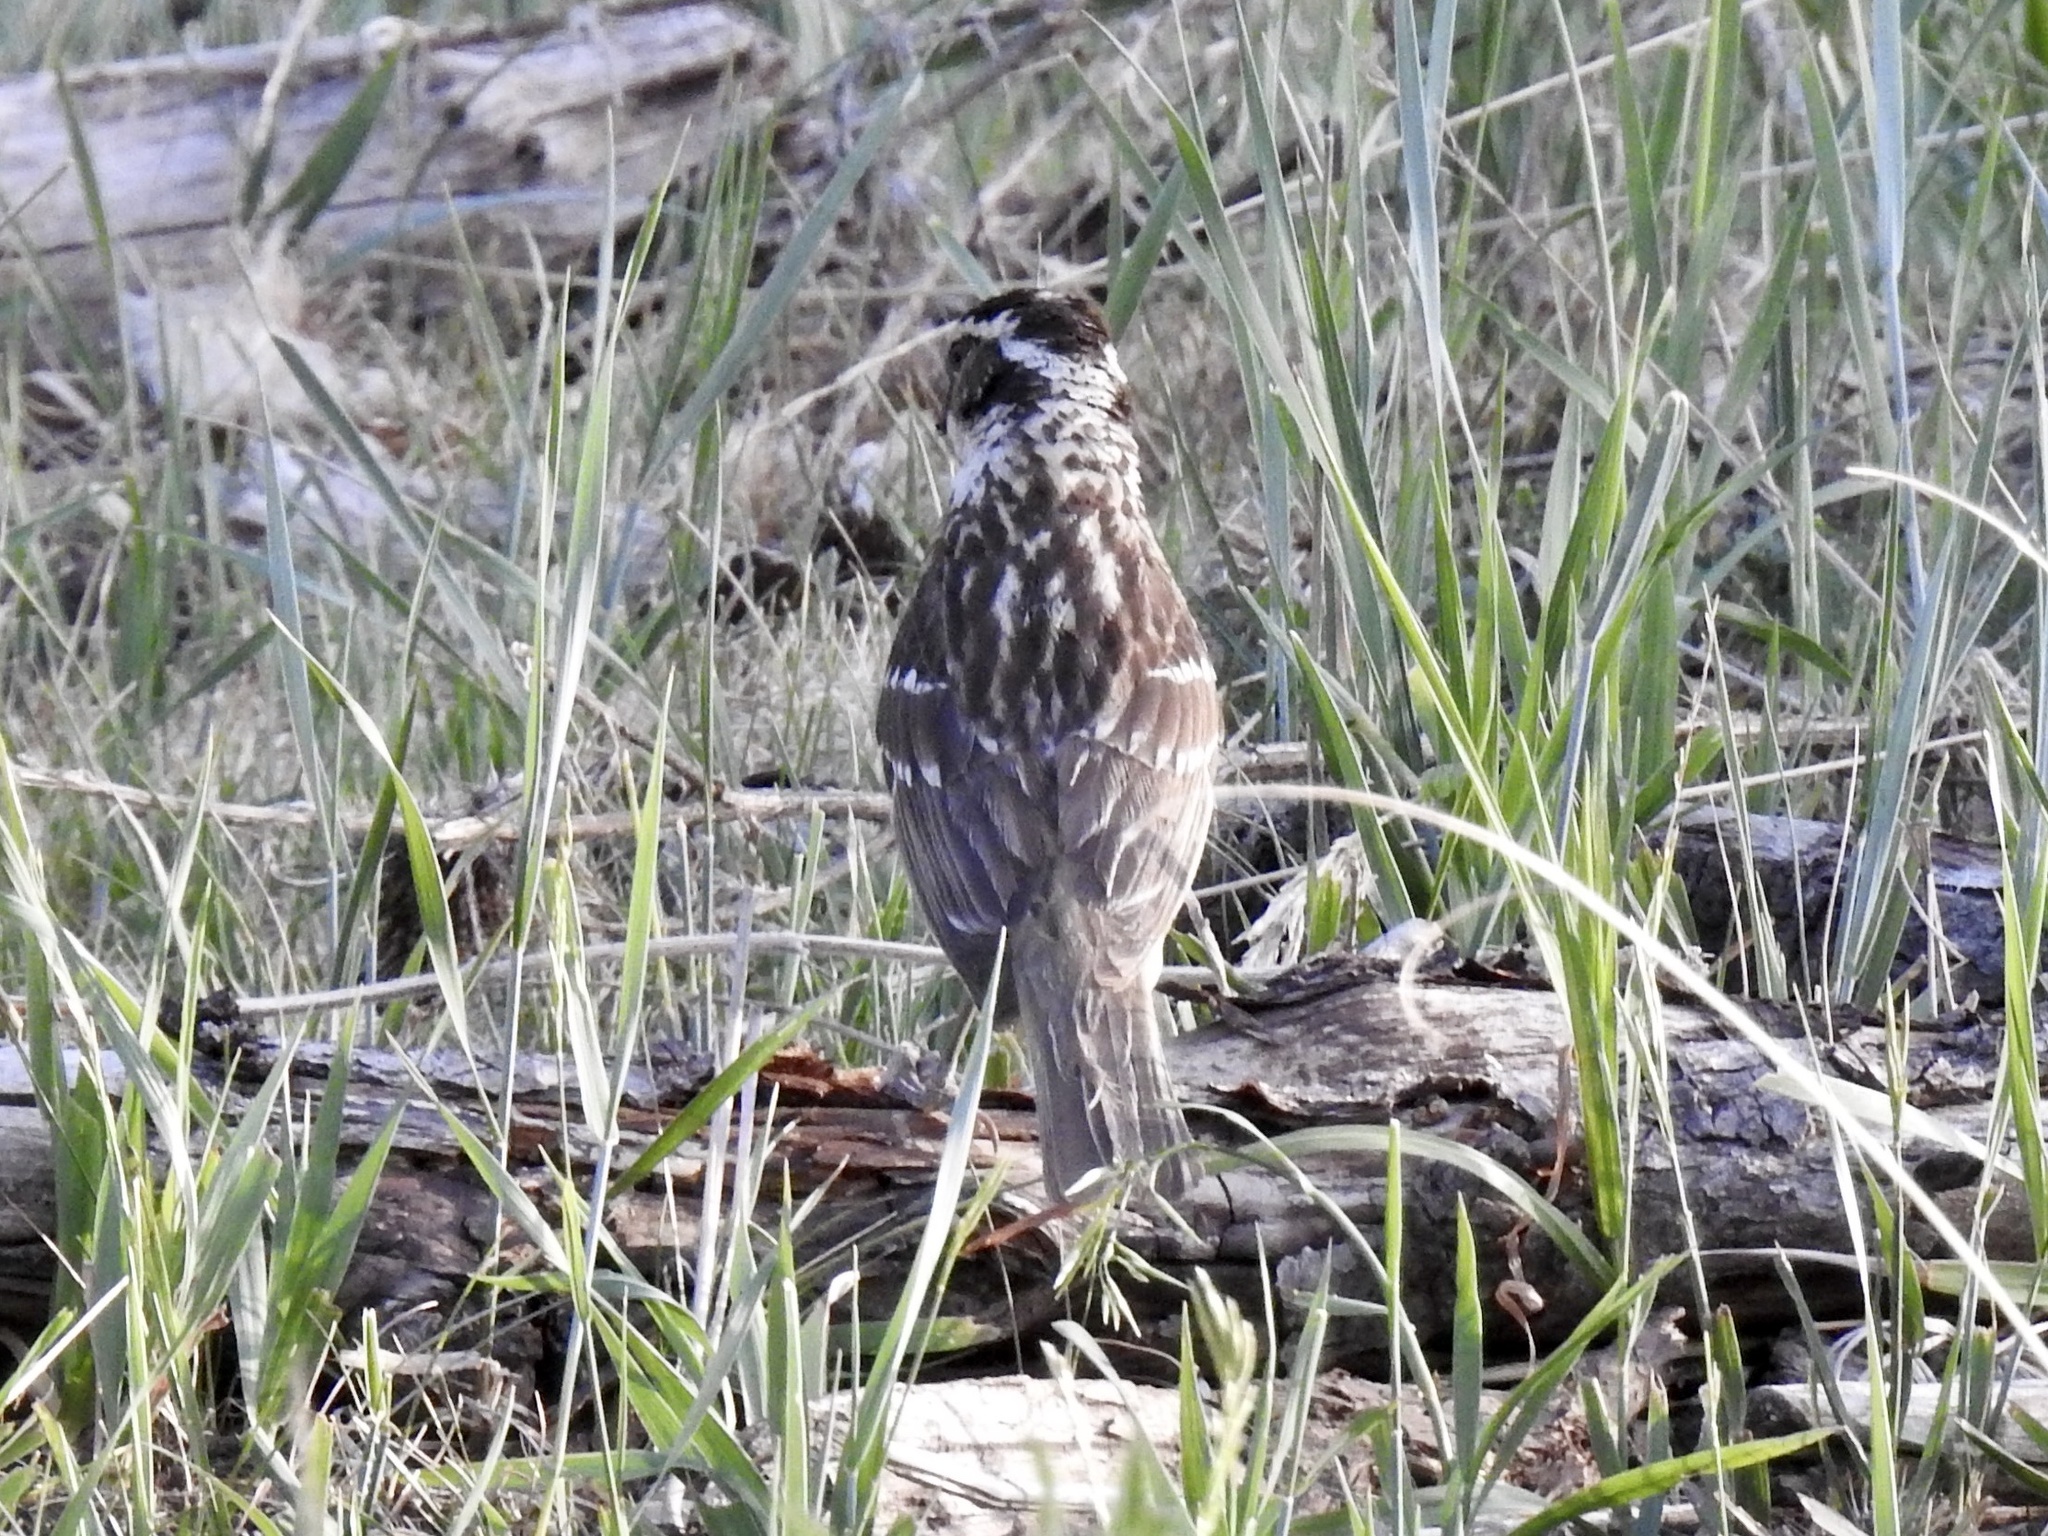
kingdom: Animalia
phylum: Chordata
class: Aves
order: Passeriformes
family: Cardinalidae
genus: Pheucticus
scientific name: Pheucticus melanocephalus
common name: Black-headed grosbeak
